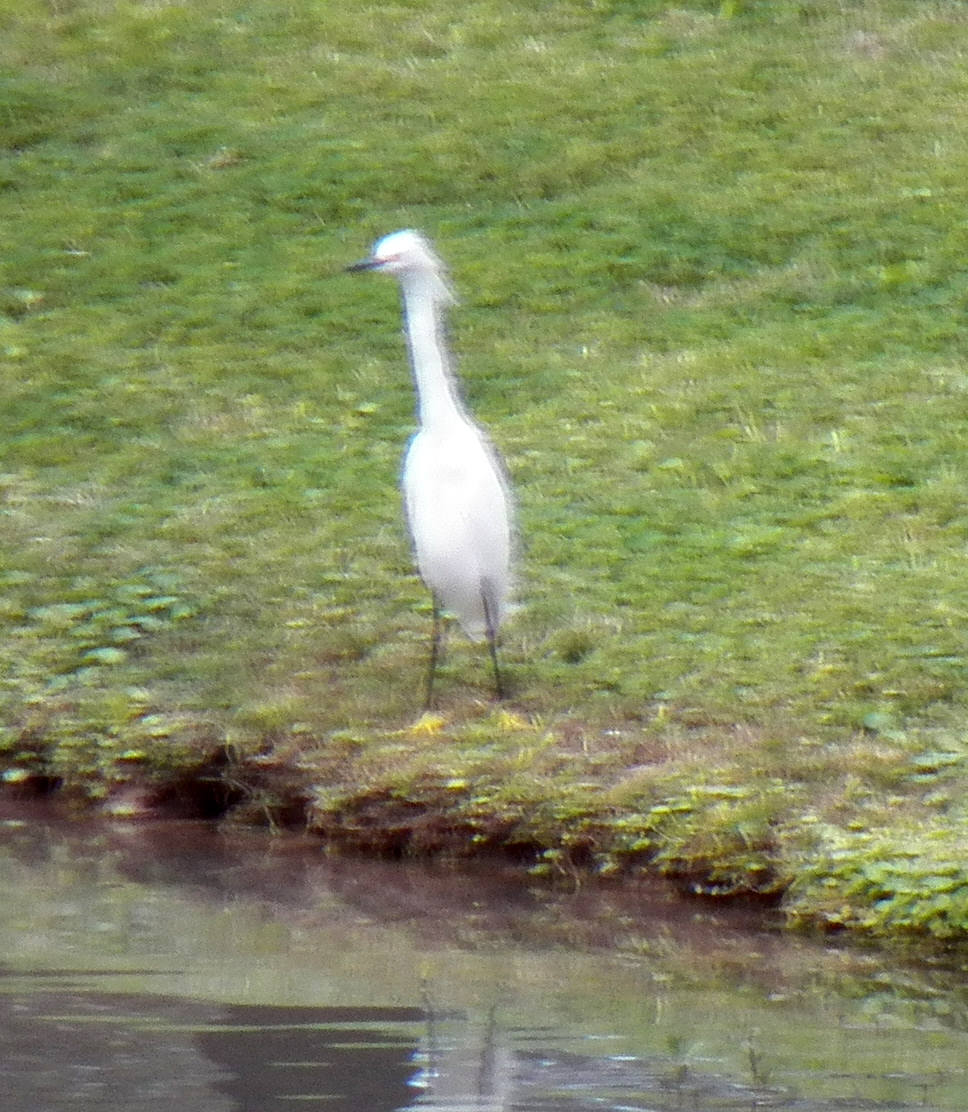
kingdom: Animalia
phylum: Chordata
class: Aves
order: Pelecaniformes
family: Ardeidae
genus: Egretta
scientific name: Egretta thula
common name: Snowy egret
